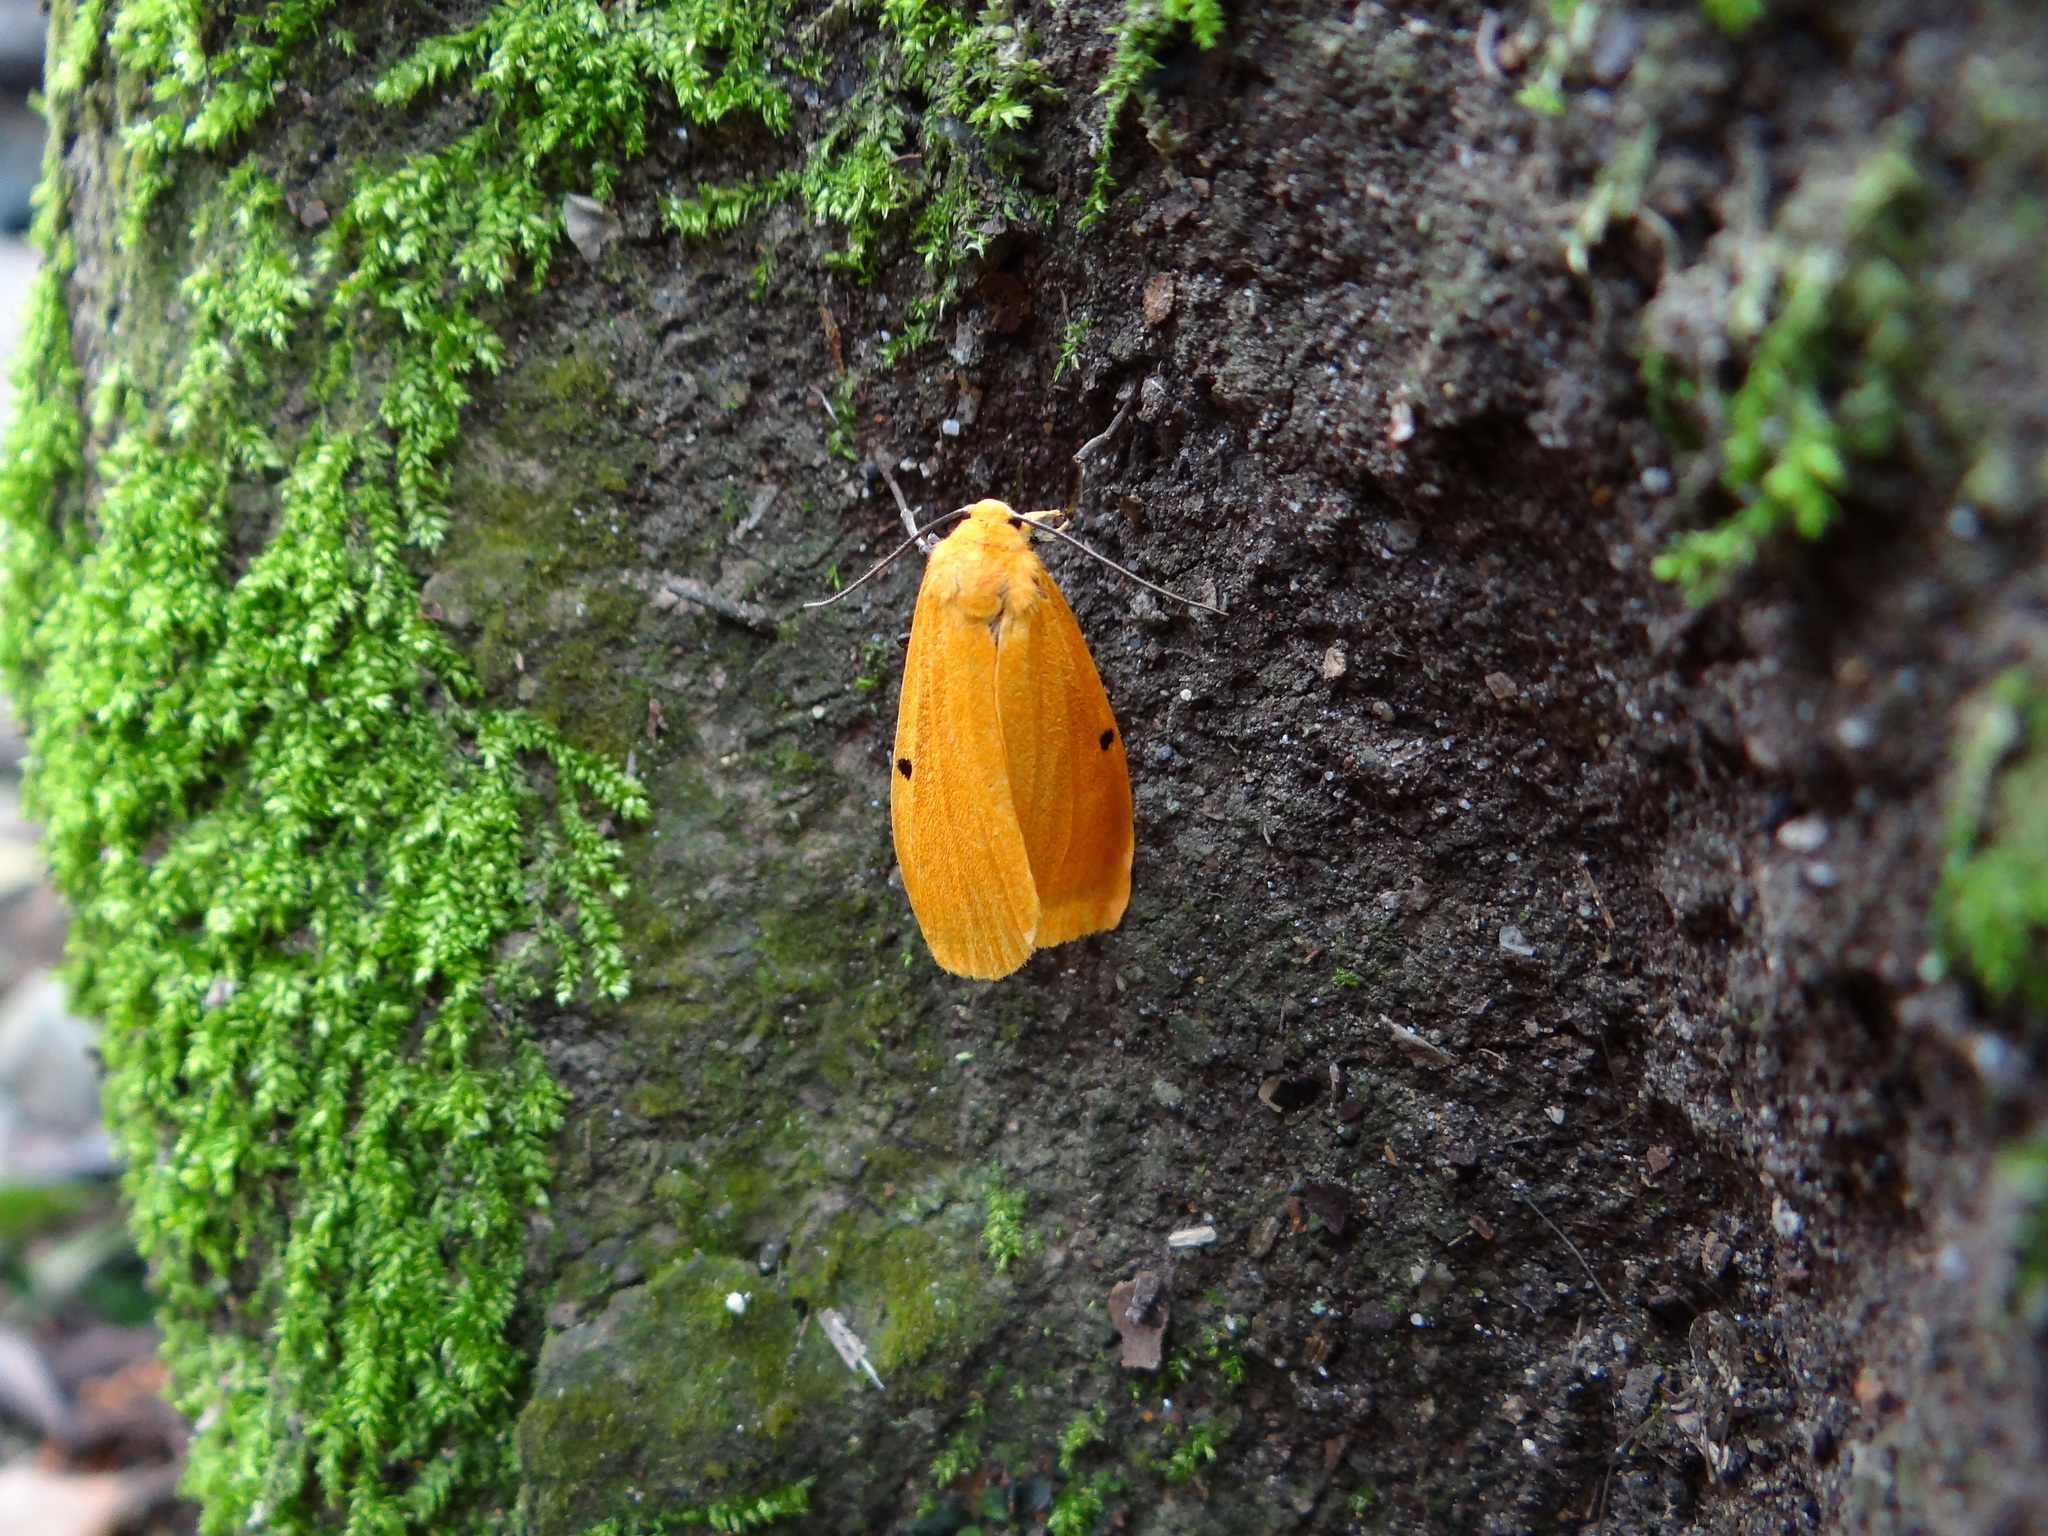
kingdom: Animalia
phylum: Arthropoda
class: Insecta
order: Lepidoptera
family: Erebidae
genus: Manulea
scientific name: Manulea hokopo
